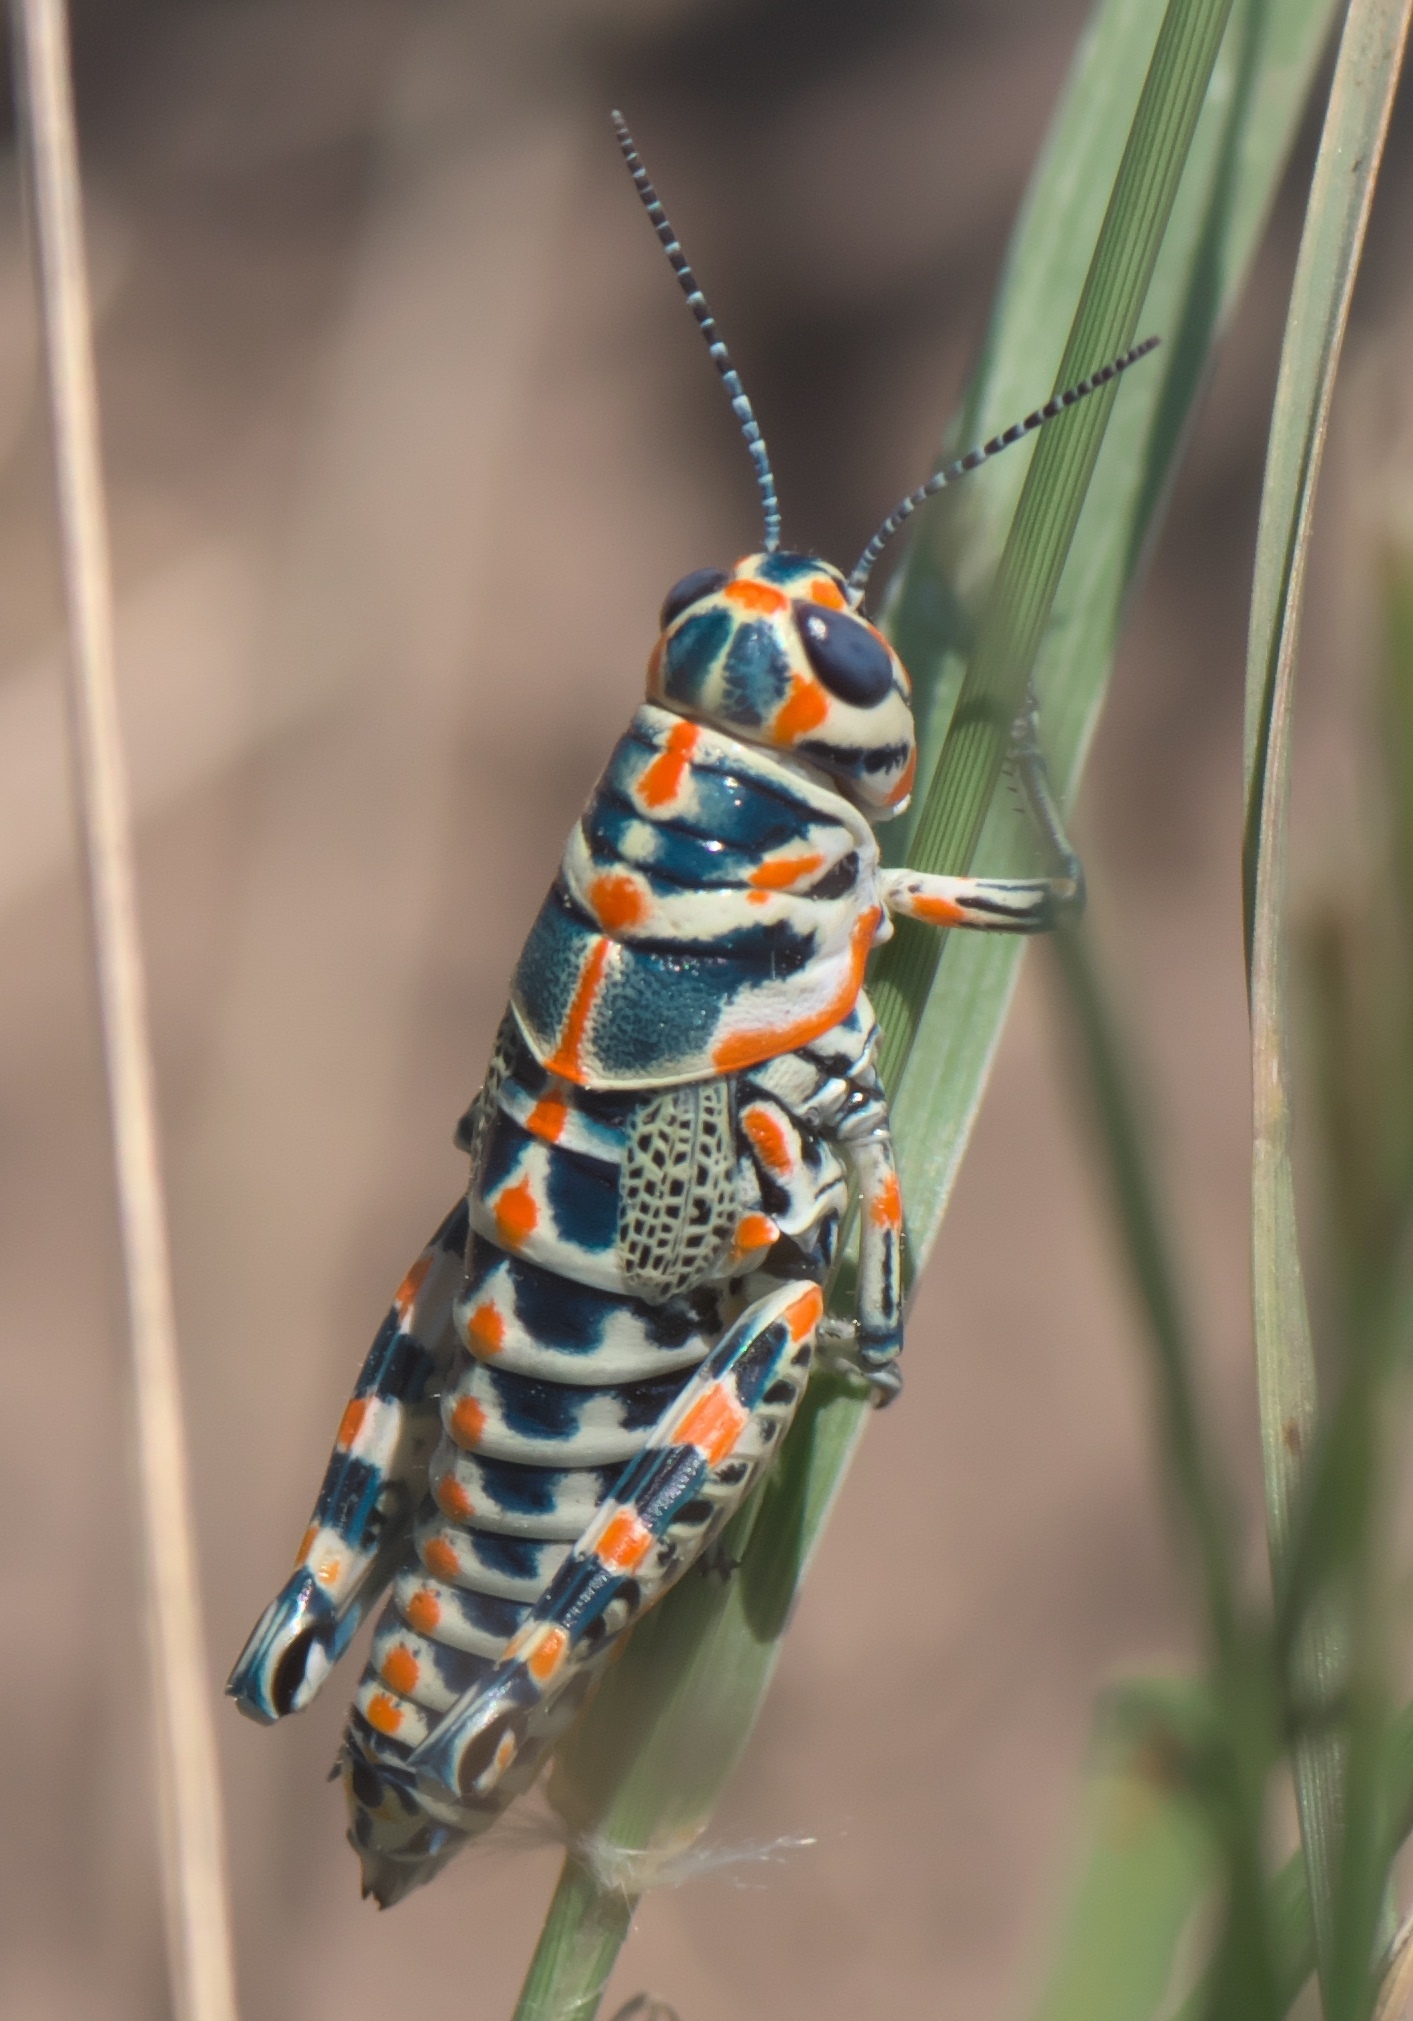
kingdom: Animalia
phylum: Arthropoda
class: Insecta
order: Orthoptera
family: Acrididae
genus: Dactylotum
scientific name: Dactylotum bicolor
